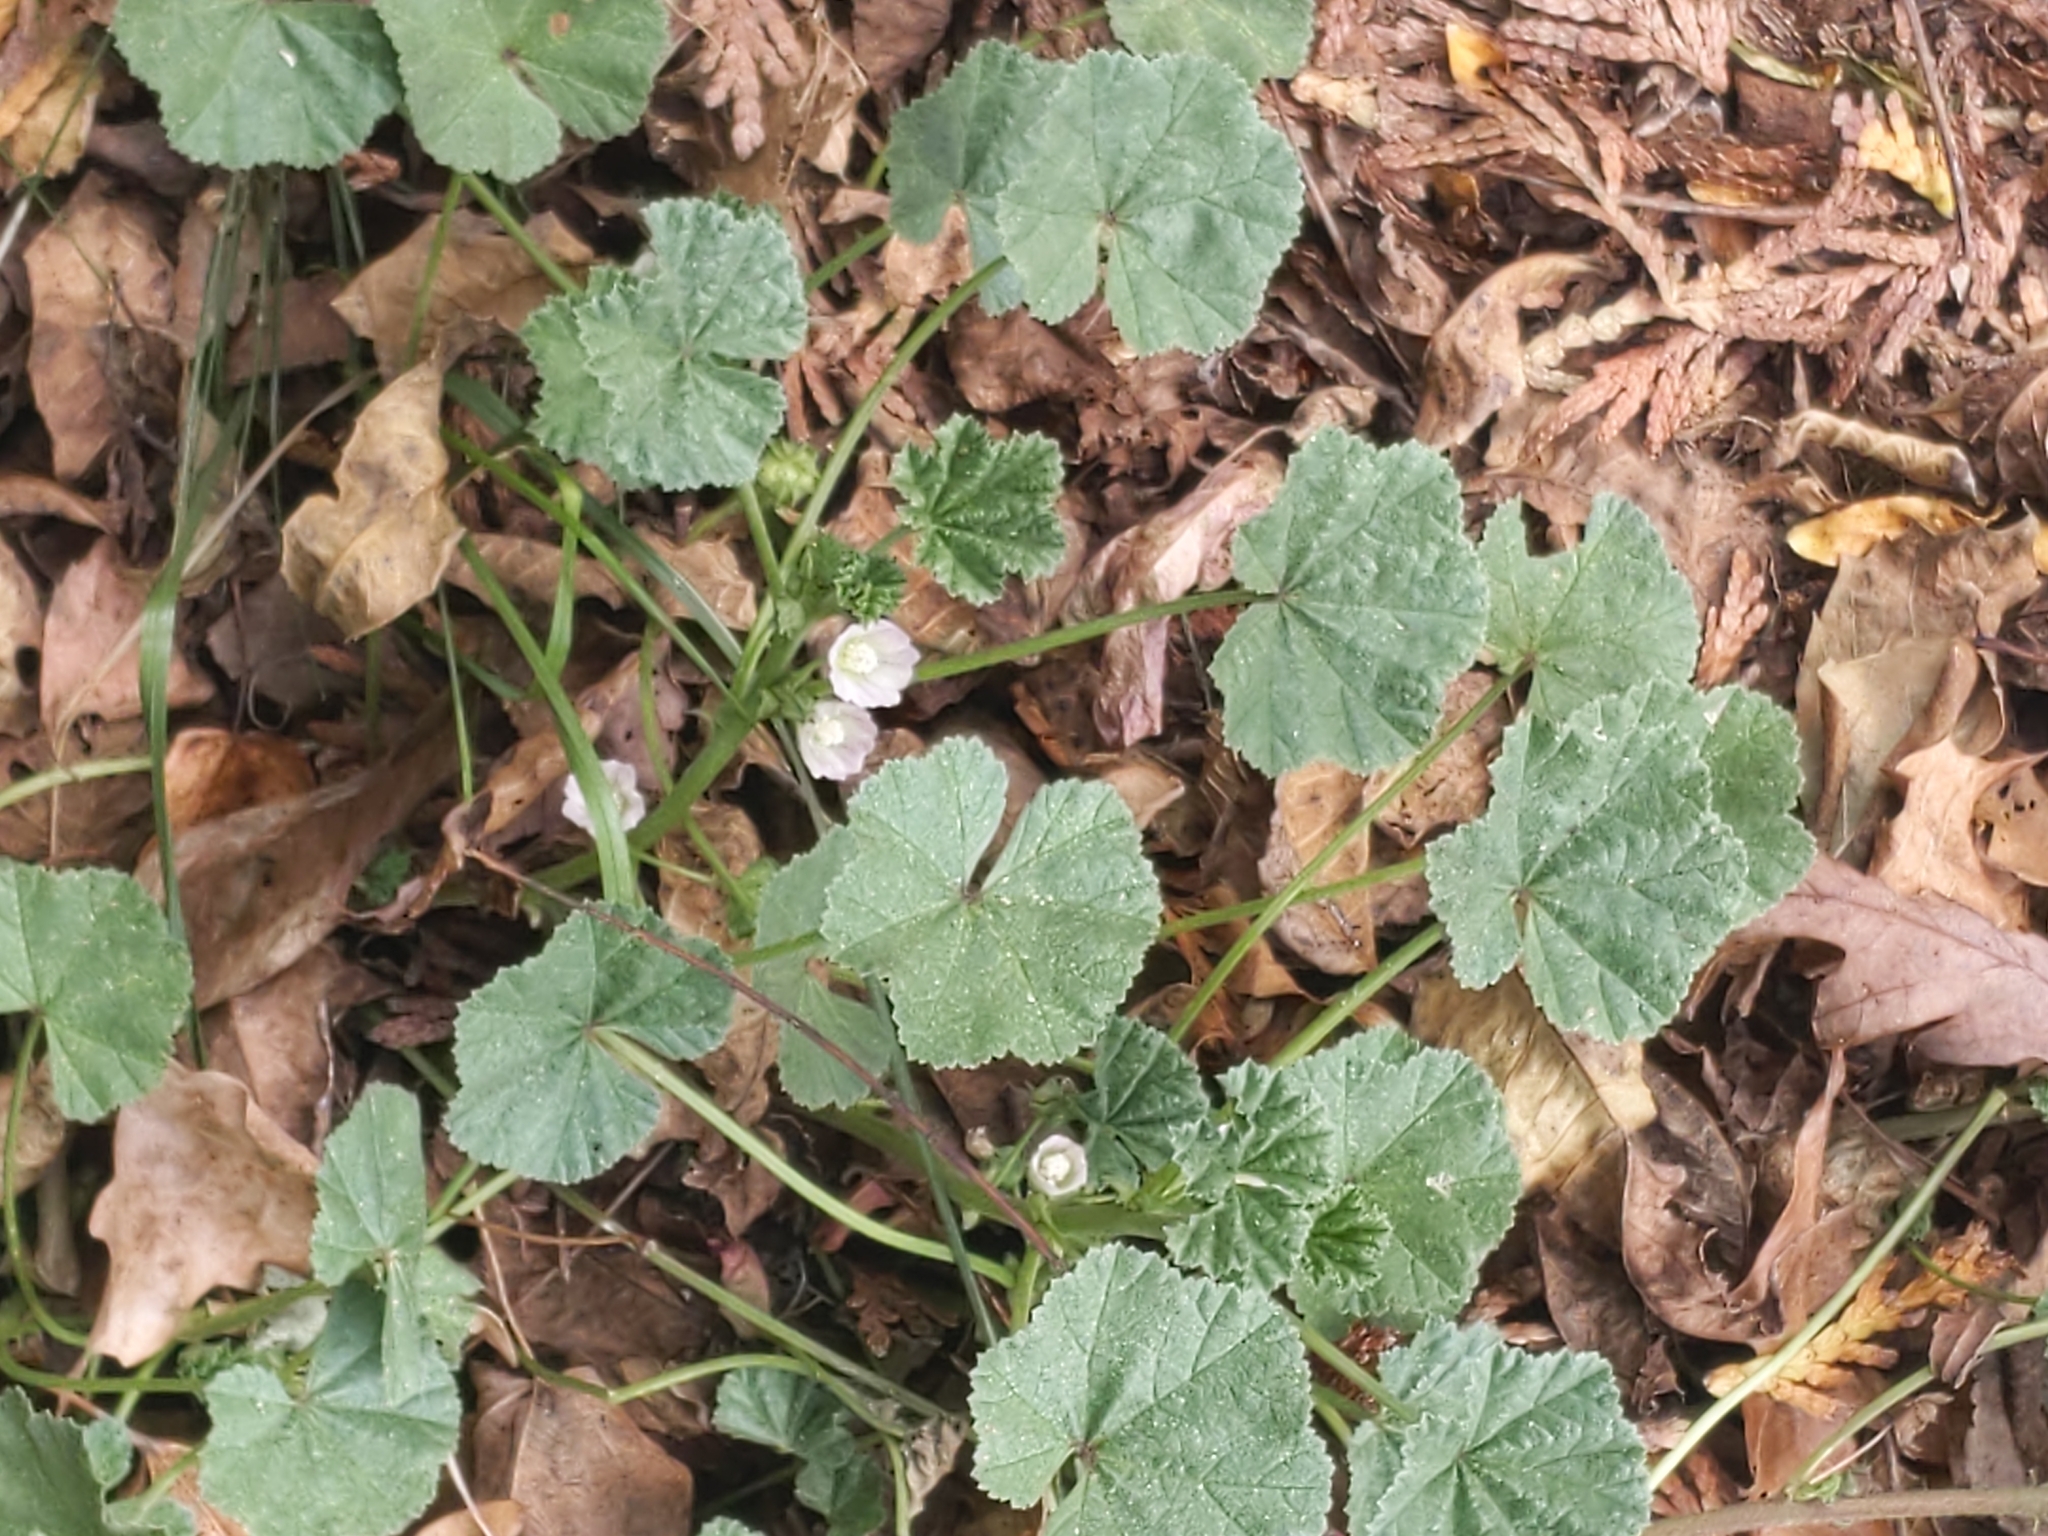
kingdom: Plantae
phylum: Tracheophyta
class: Magnoliopsida
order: Malvales
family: Malvaceae
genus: Malva
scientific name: Malva neglecta
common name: Common mallow
